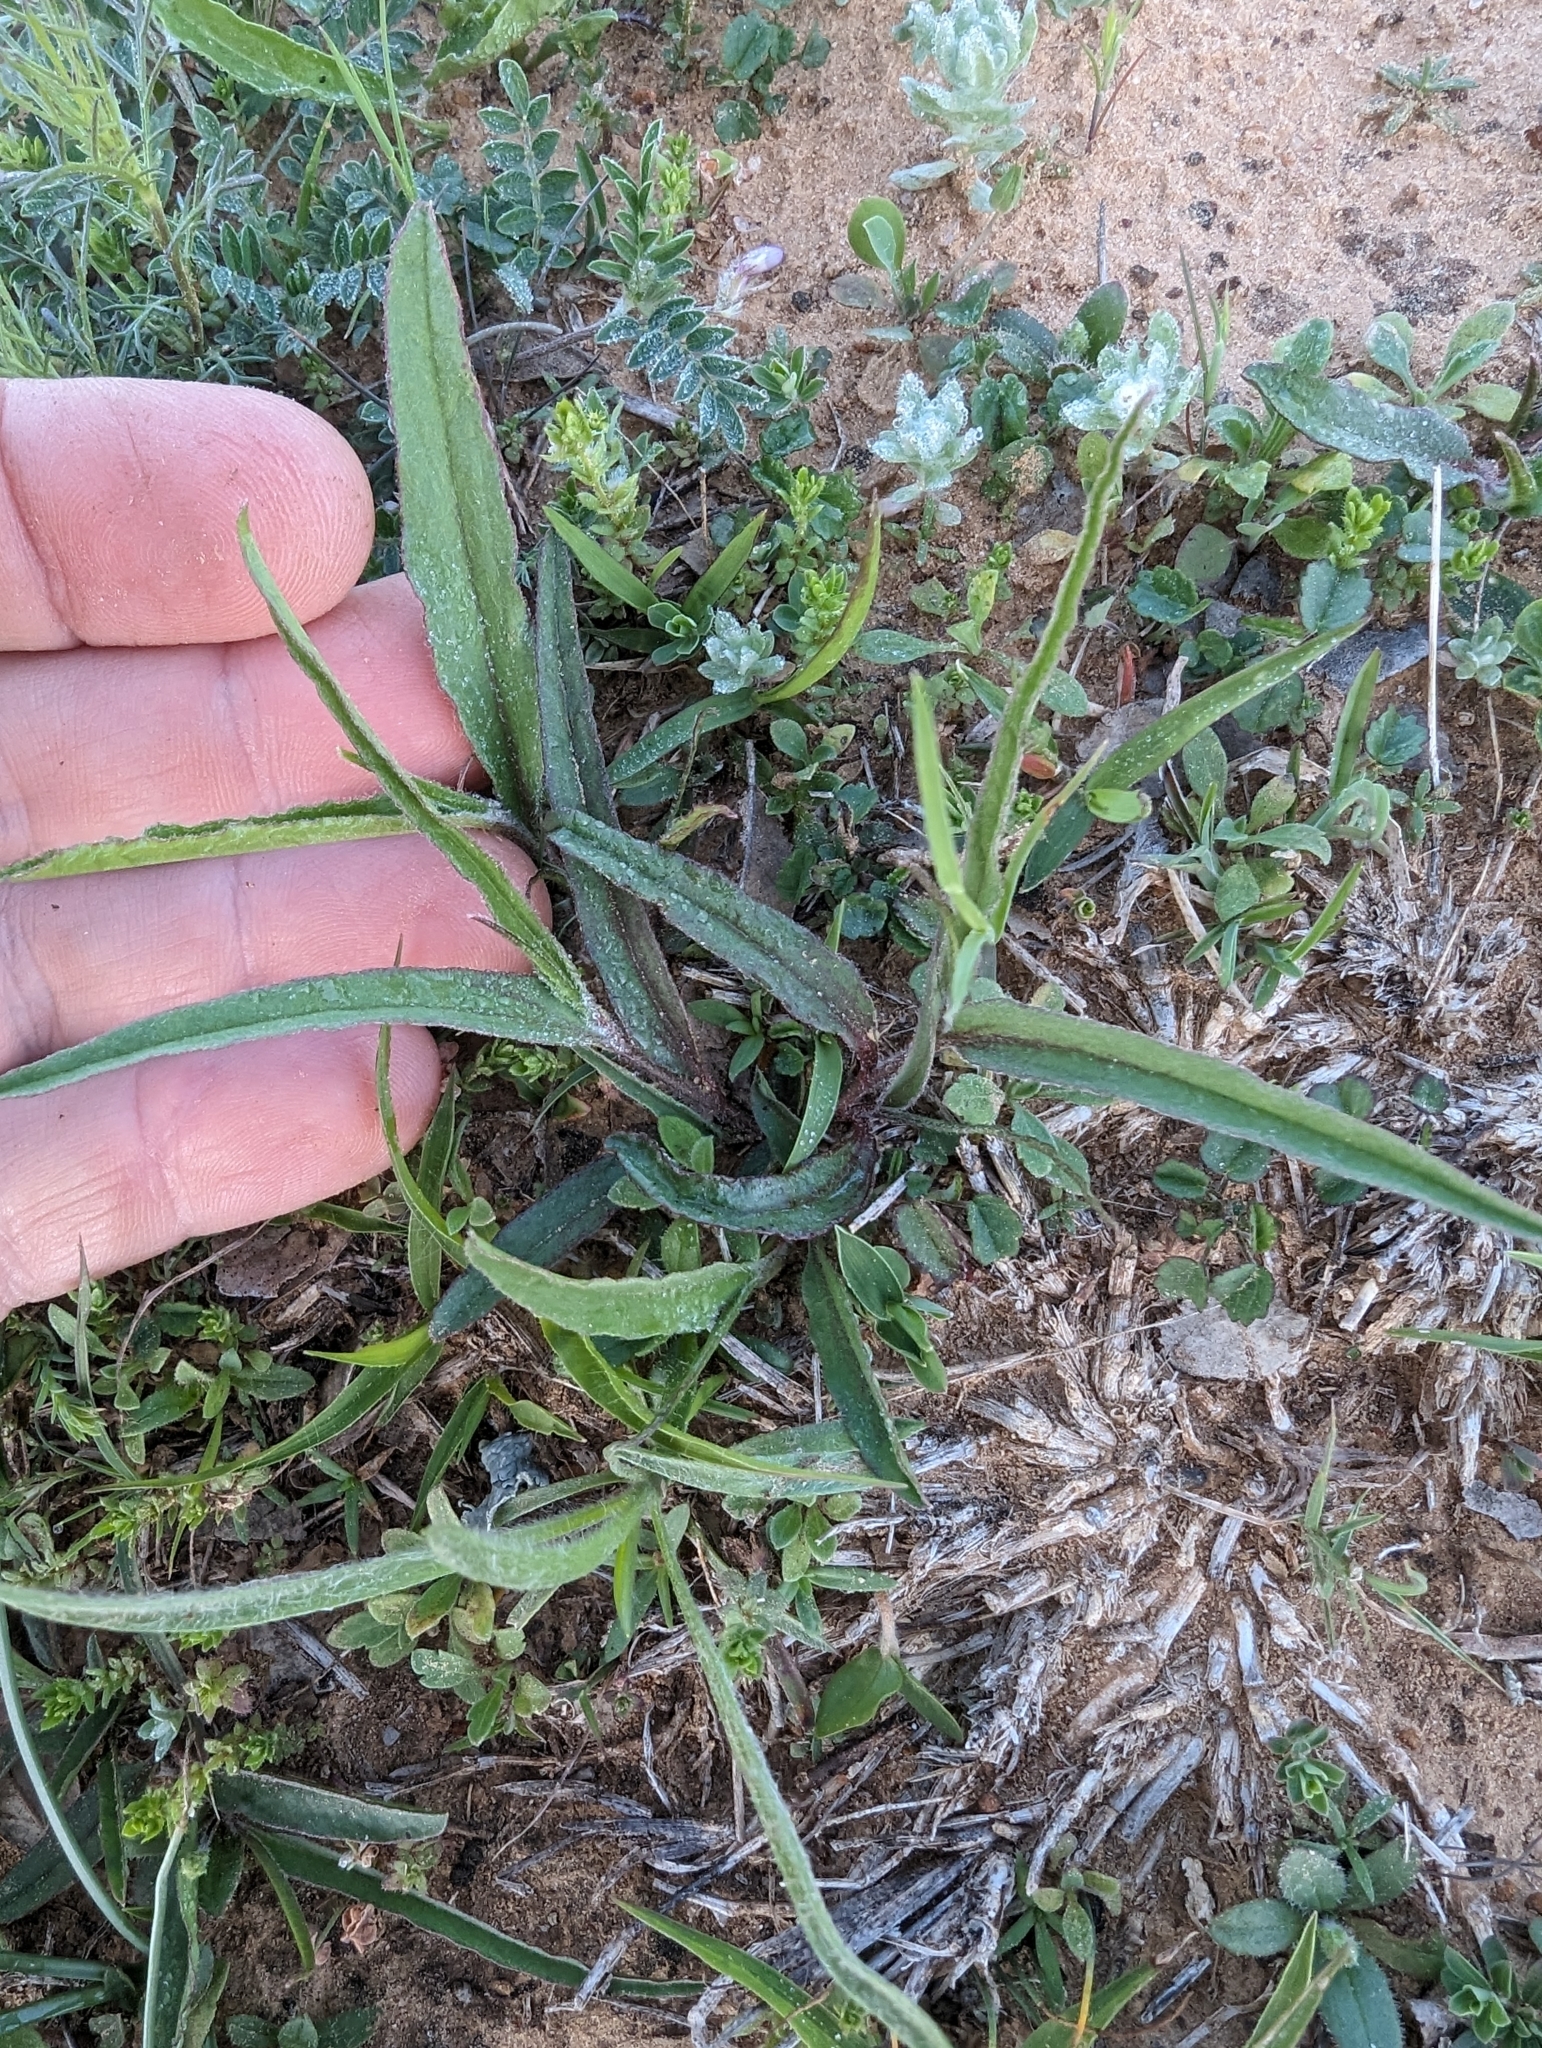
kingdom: Plantae
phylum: Tracheophyta
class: Magnoliopsida
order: Piperales
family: Aristolochiaceae
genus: Aristolochia
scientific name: Aristolochia erecta
